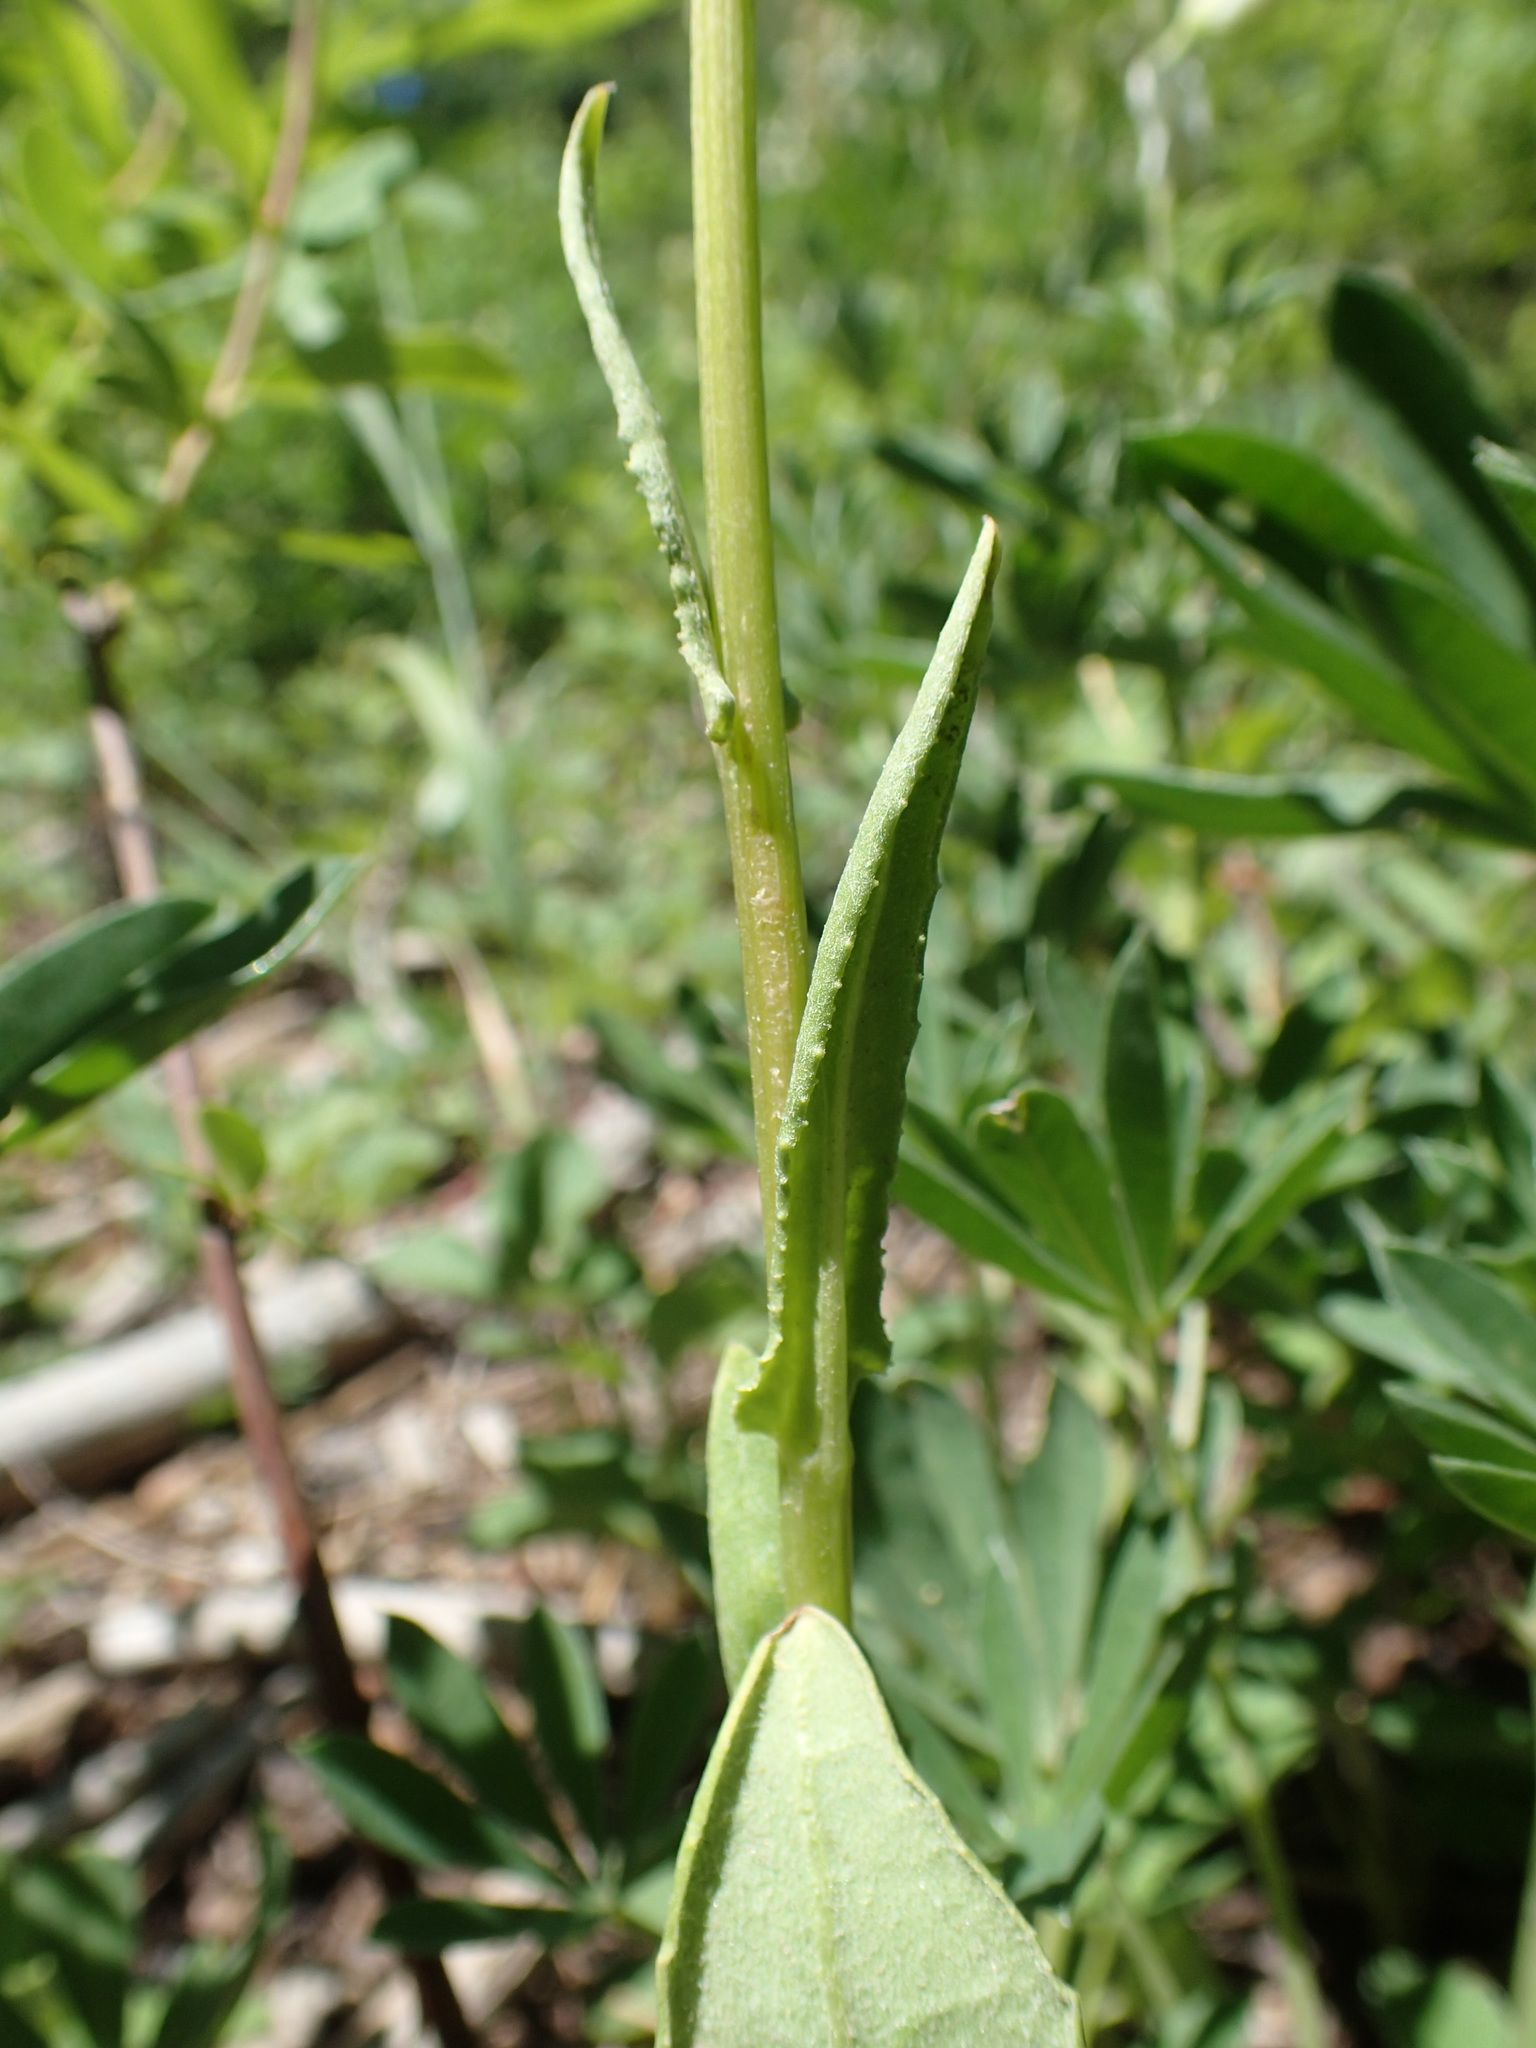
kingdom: Plantae
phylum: Tracheophyta
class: Magnoliopsida
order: Asterales
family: Asteraceae
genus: Senecio
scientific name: Senecio hydrophilus
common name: Water ragwort
